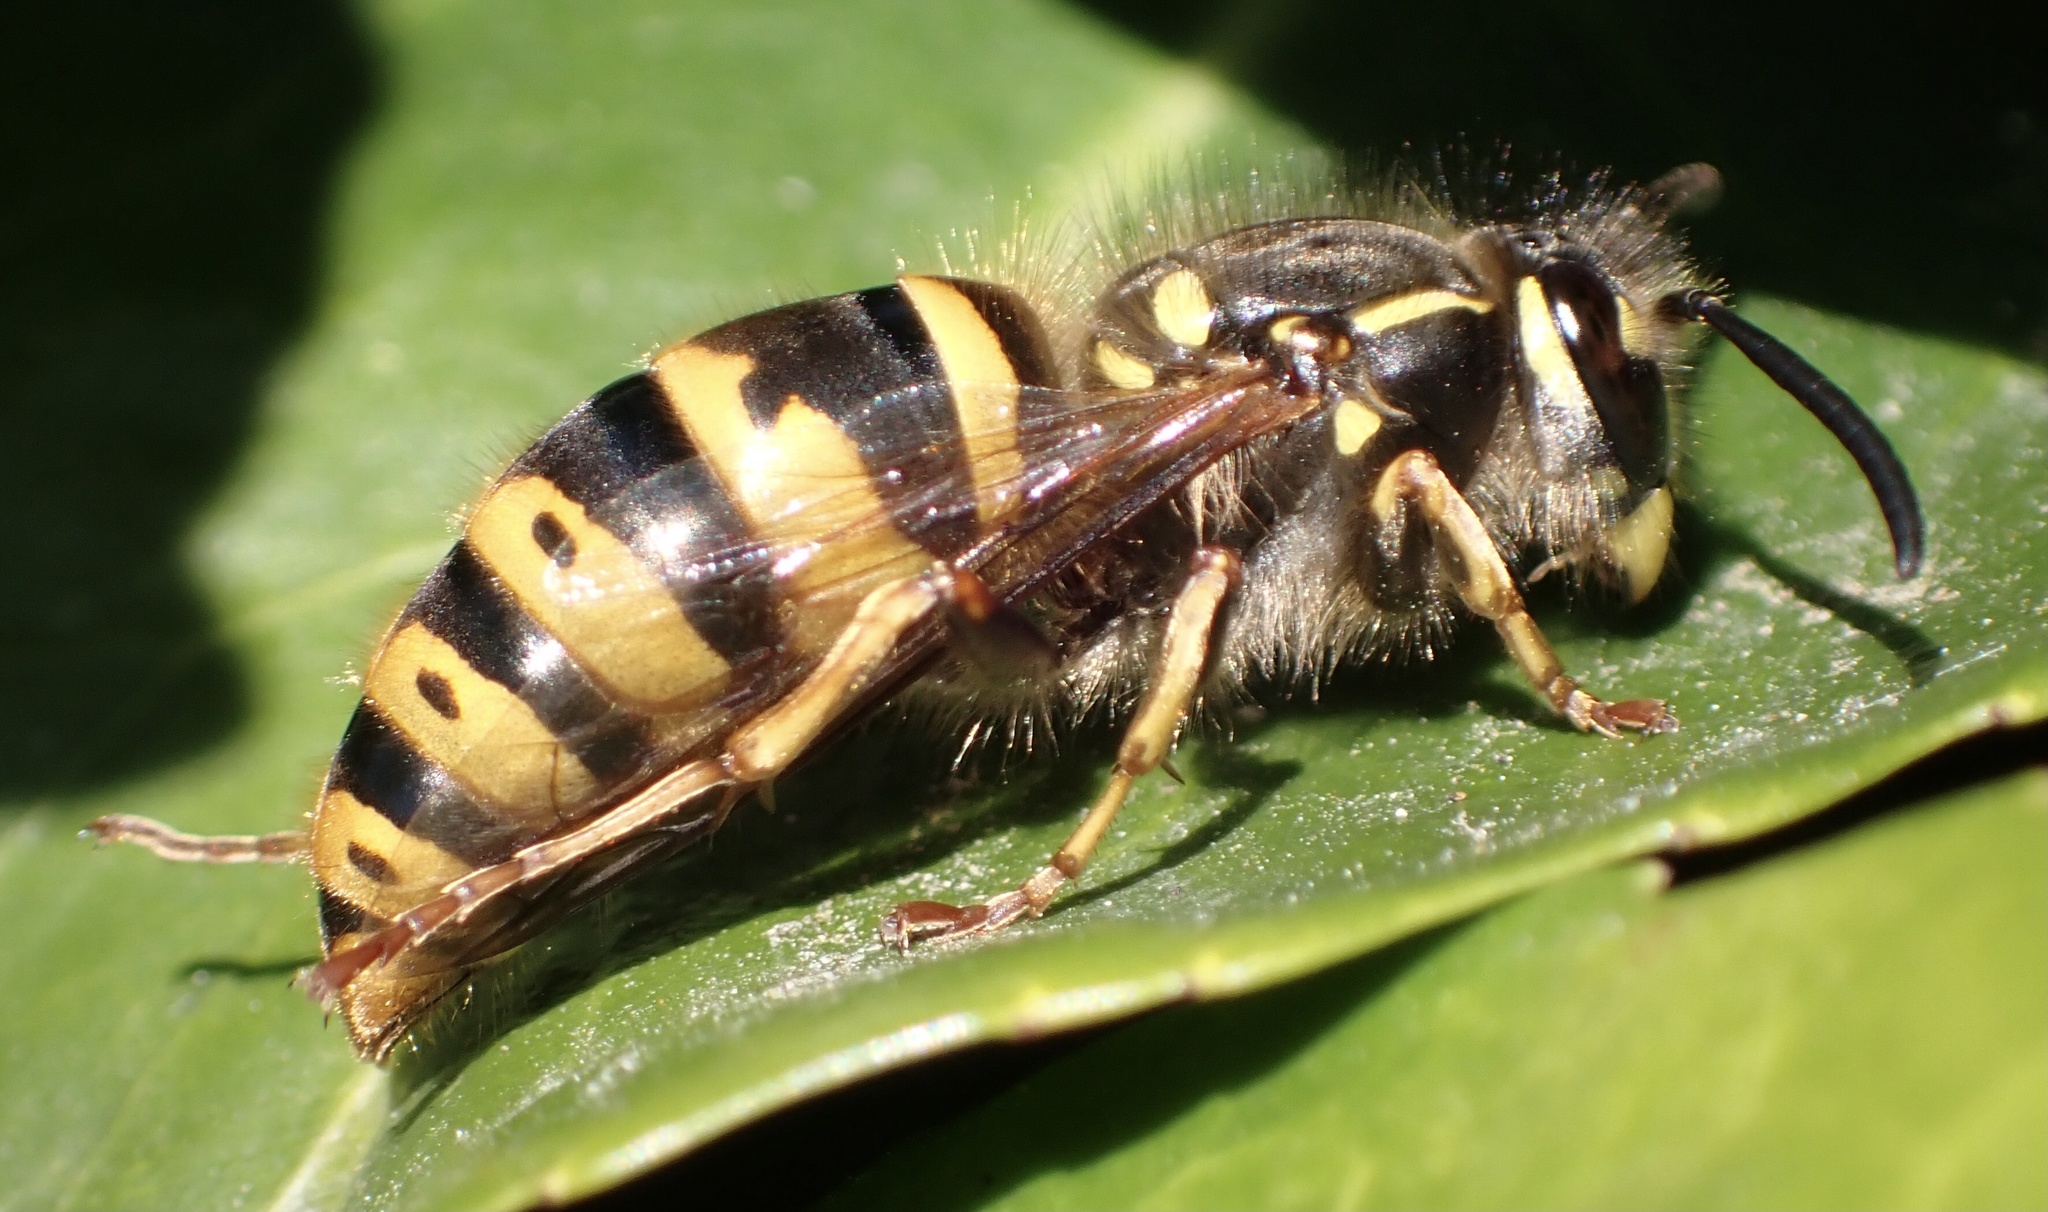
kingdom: Animalia
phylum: Arthropoda
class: Insecta
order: Hymenoptera
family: Vespidae
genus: Vespula
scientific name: Vespula vulgaris
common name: Common wasp
